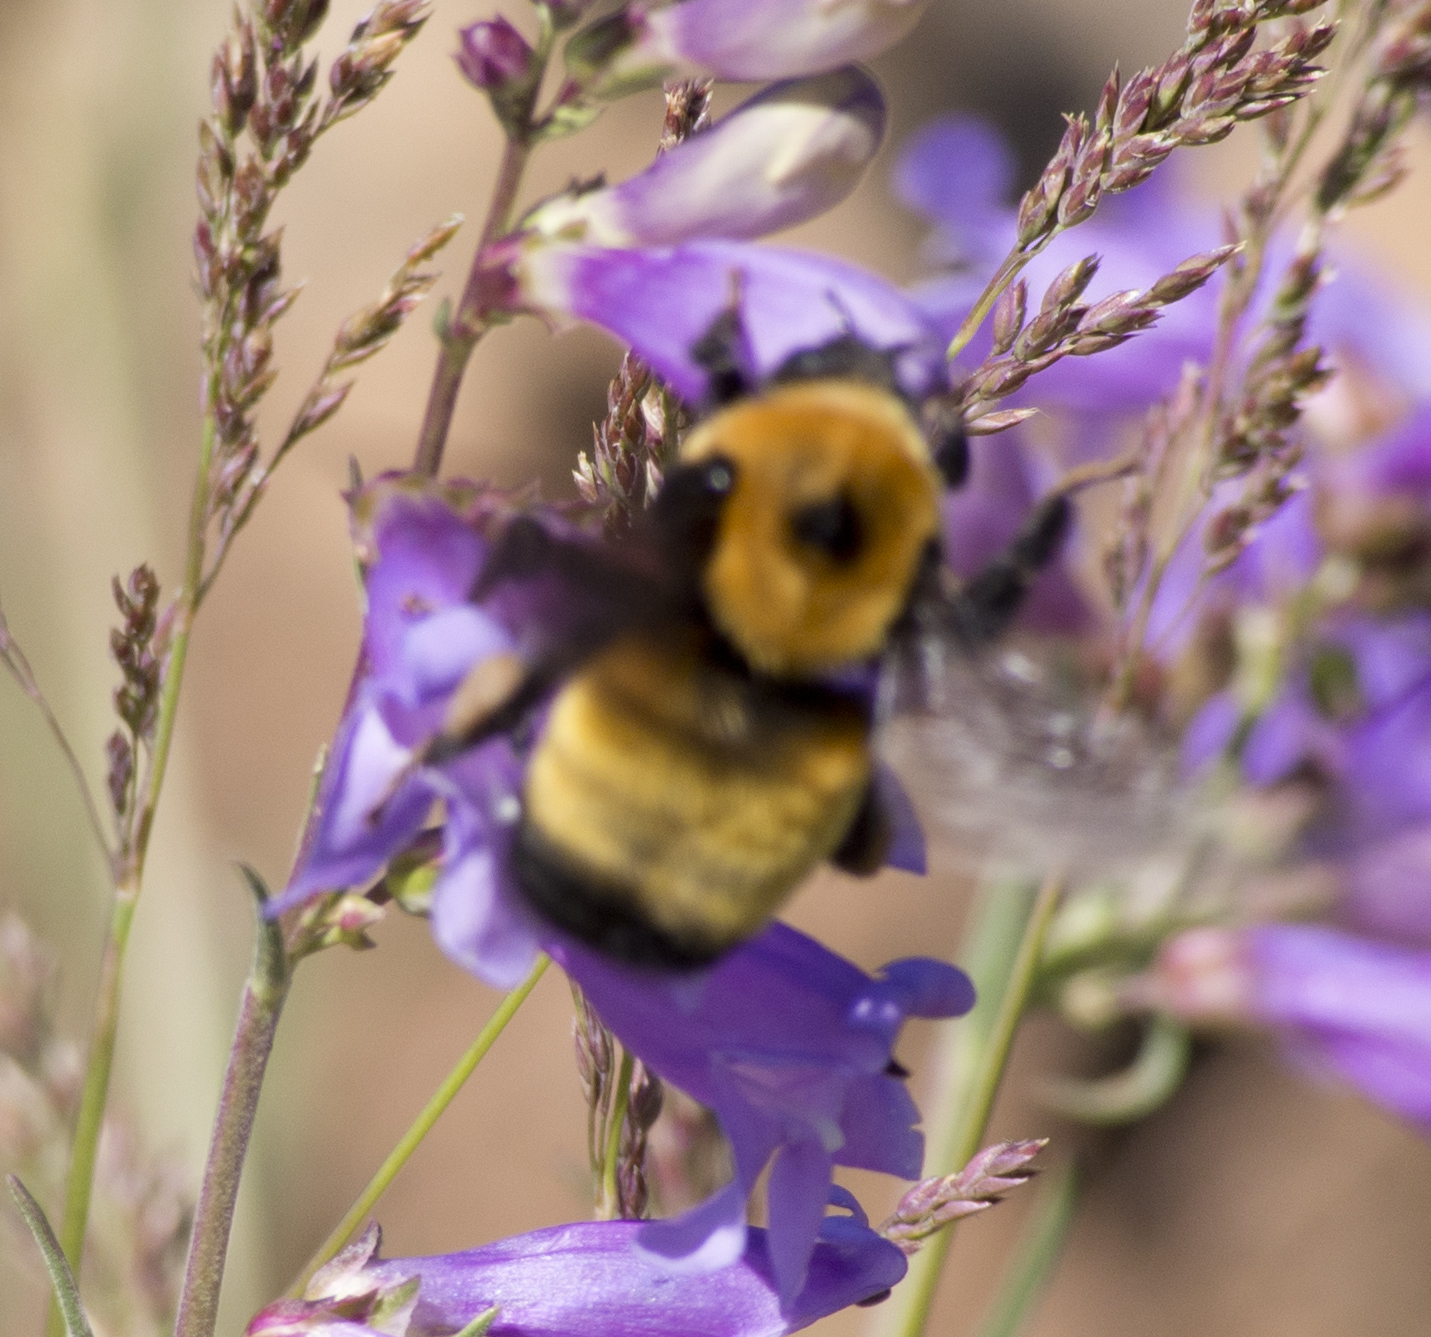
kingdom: Animalia
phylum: Arthropoda
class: Insecta
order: Hymenoptera
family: Apidae
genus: Bombus
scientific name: Bombus nevadensis
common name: Nevada bumble bee
